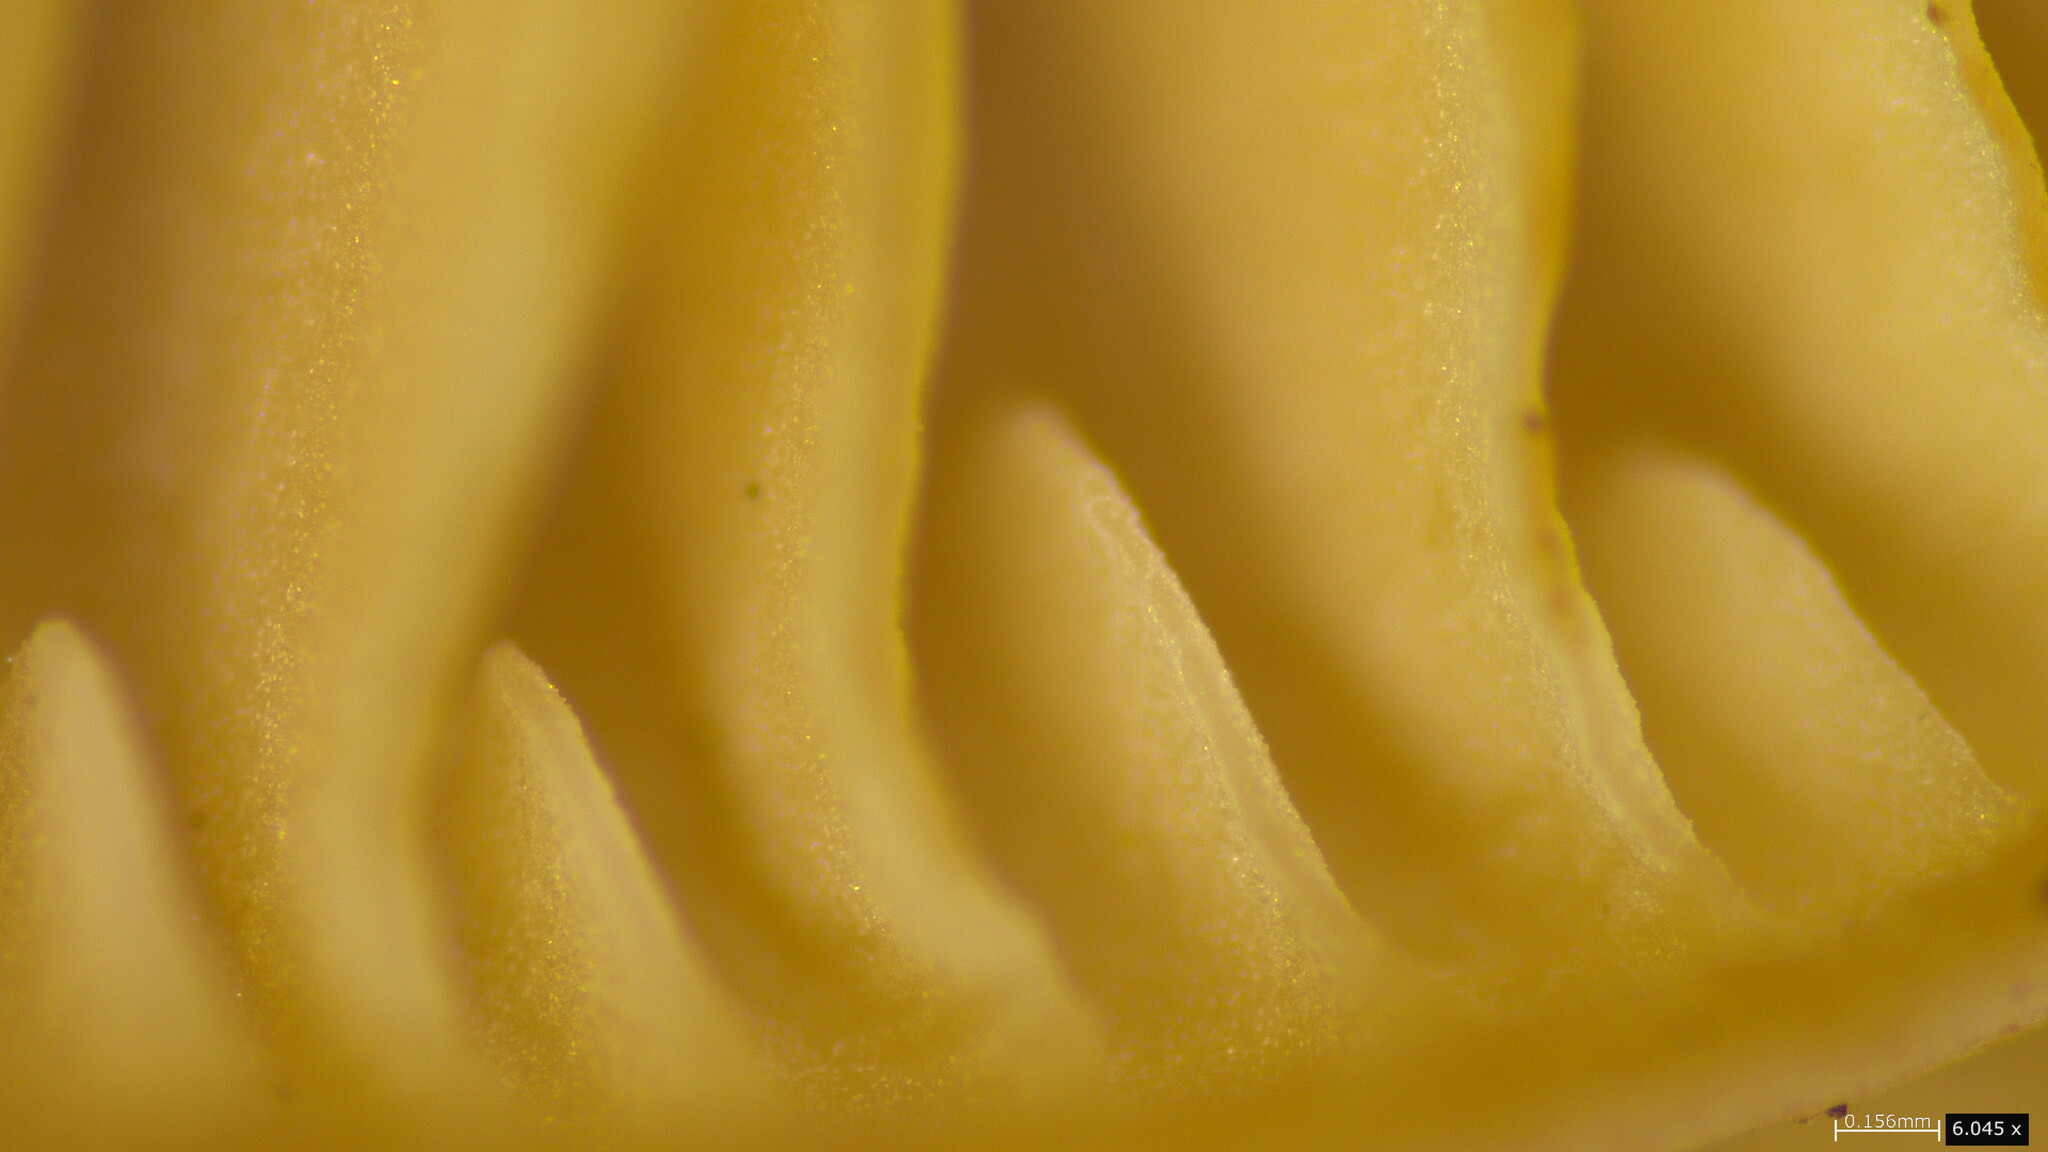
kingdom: Fungi
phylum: Basidiomycota
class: Agaricomycetes
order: Russulales
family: Auriscalpiaceae
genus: Lentinellus
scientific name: Lentinellus ursinus
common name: Bear lentinus
